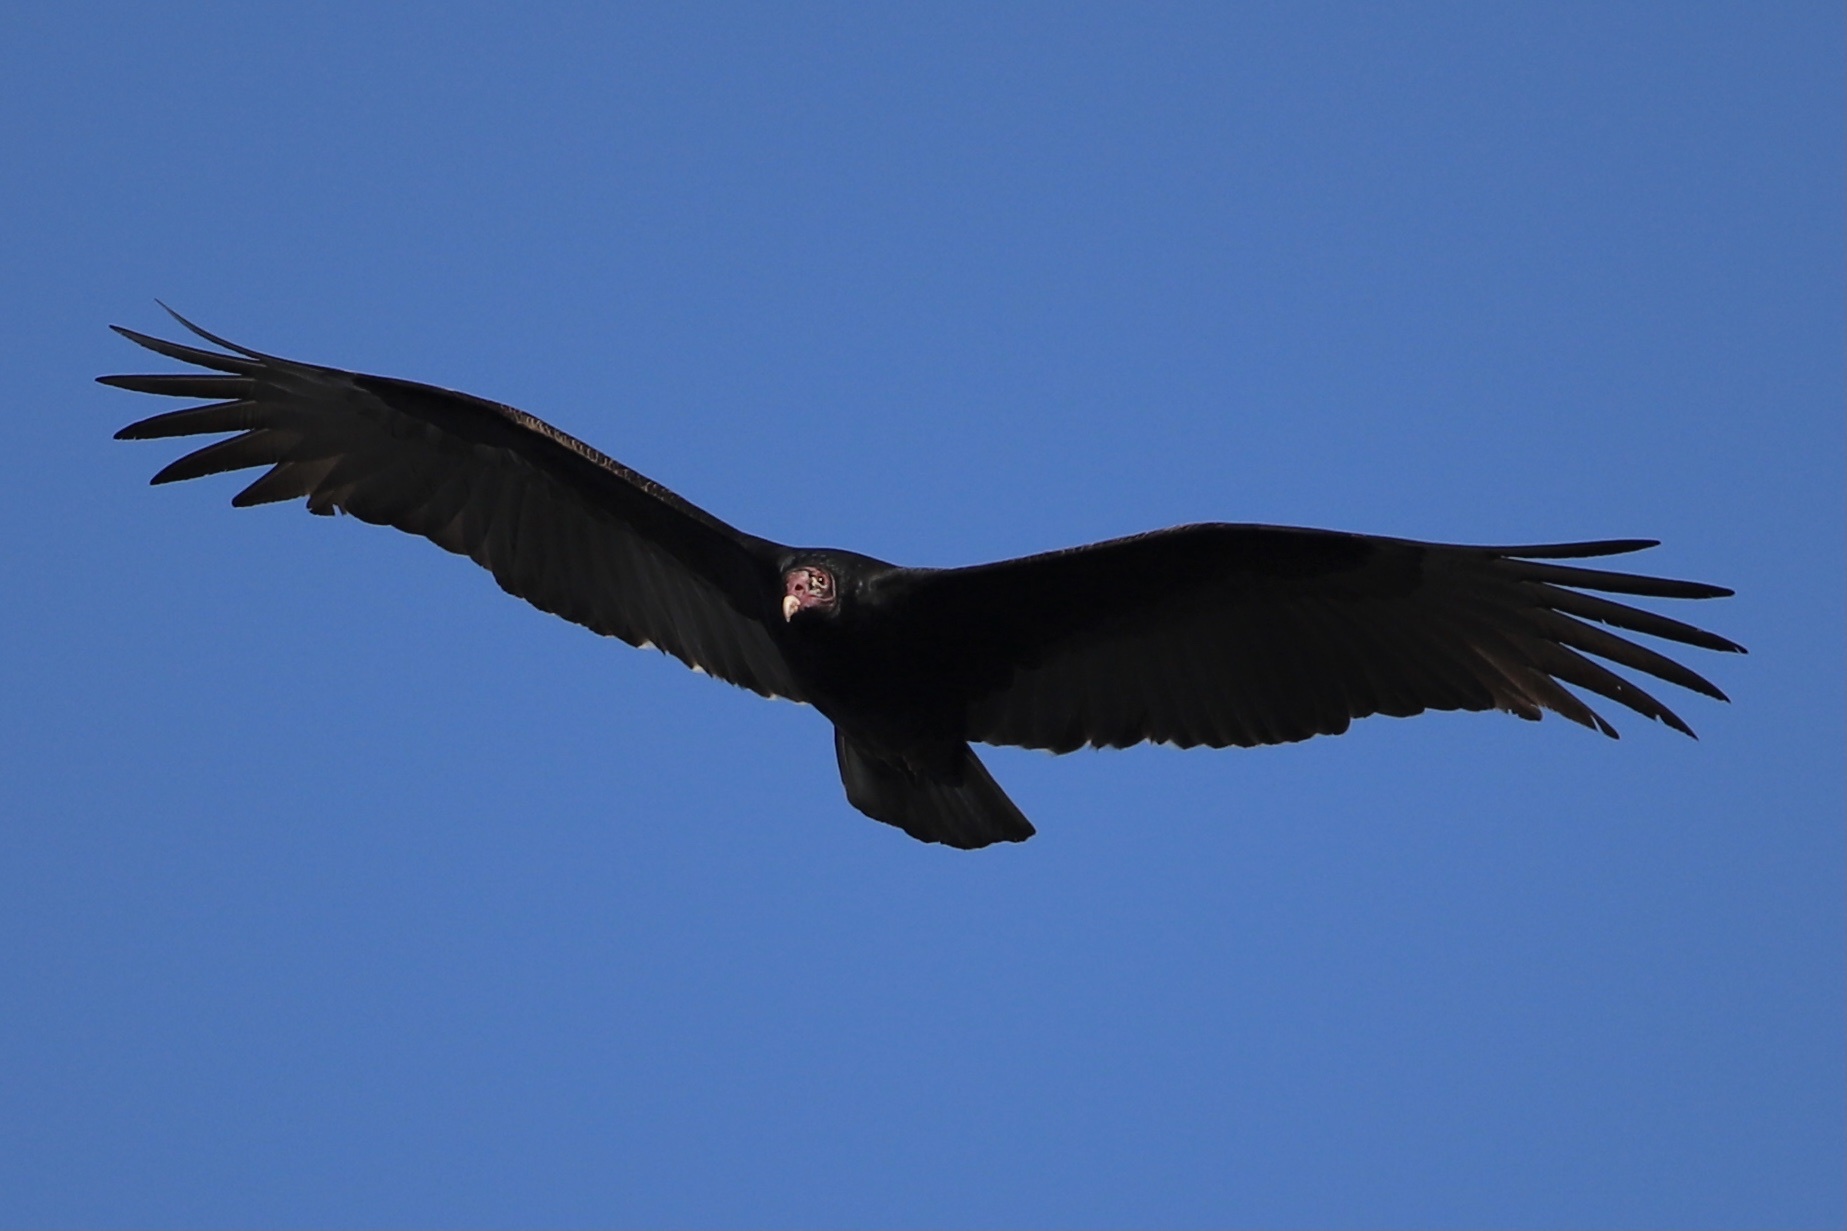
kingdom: Animalia
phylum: Chordata
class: Aves
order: Accipitriformes
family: Cathartidae
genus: Cathartes
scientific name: Cathartes aura
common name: Turkey vulture
